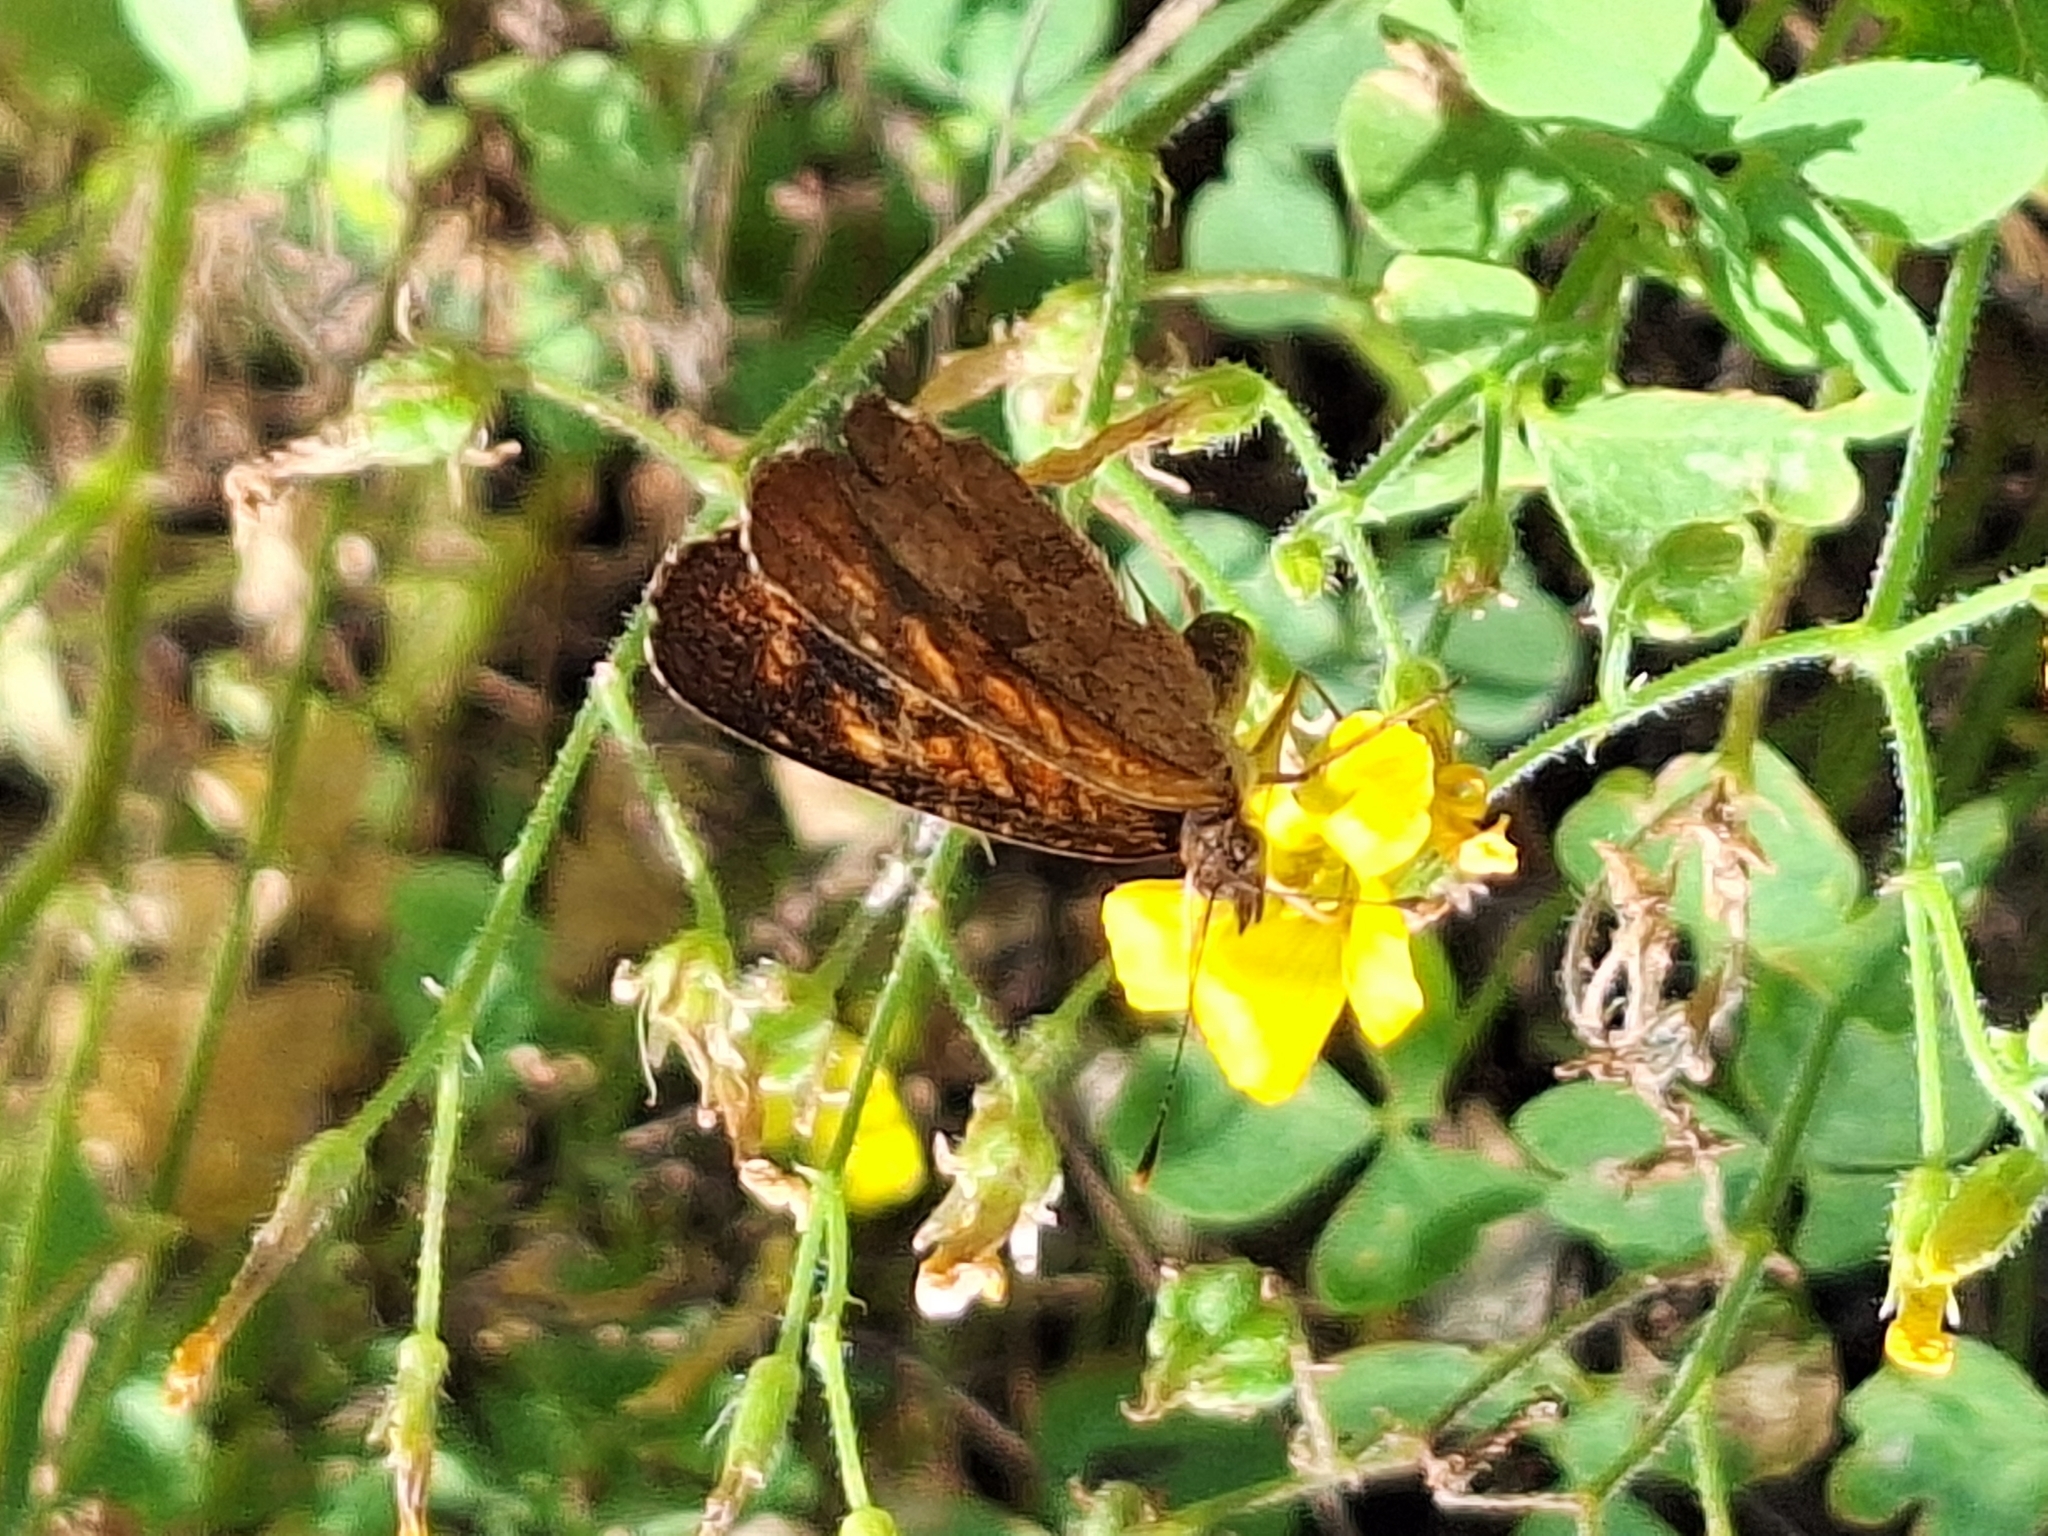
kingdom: Animalia
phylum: Arthropoda
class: Insecta
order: Lepidoptera
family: Nymphalidae
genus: Ortilia
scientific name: Ortilia velica
